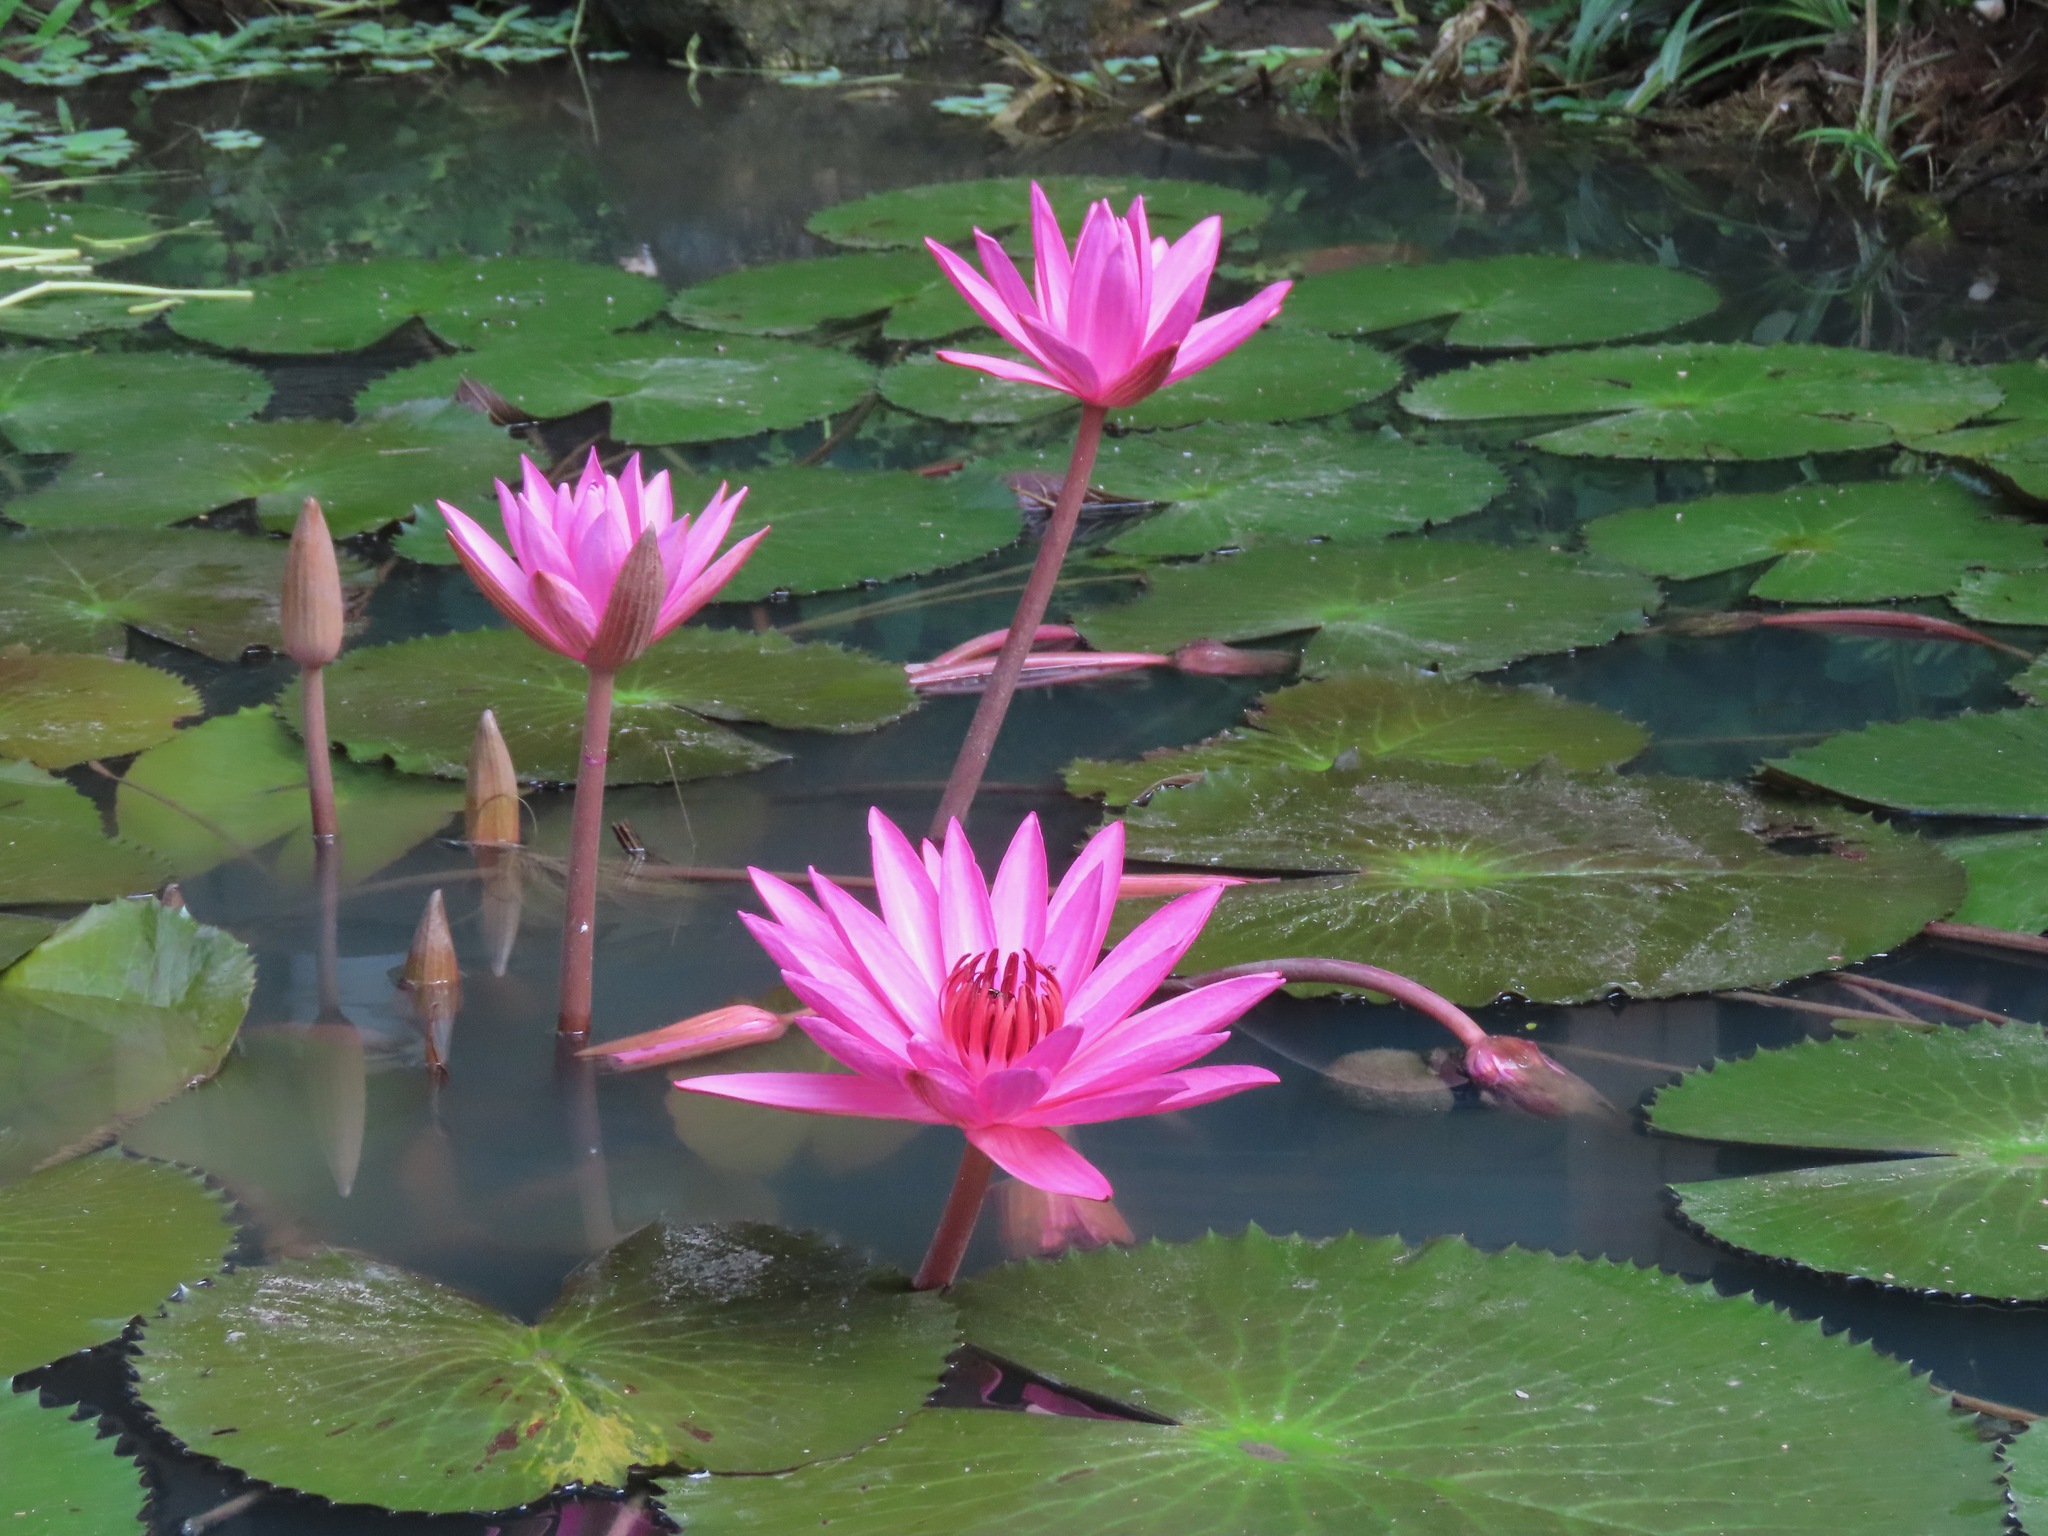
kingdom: Plantae
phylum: Tracheophyta
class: Magnoliopsida
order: Nymphaeales
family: Nymphaeaceae
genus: Nymphaea
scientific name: Nymphaea rubra
